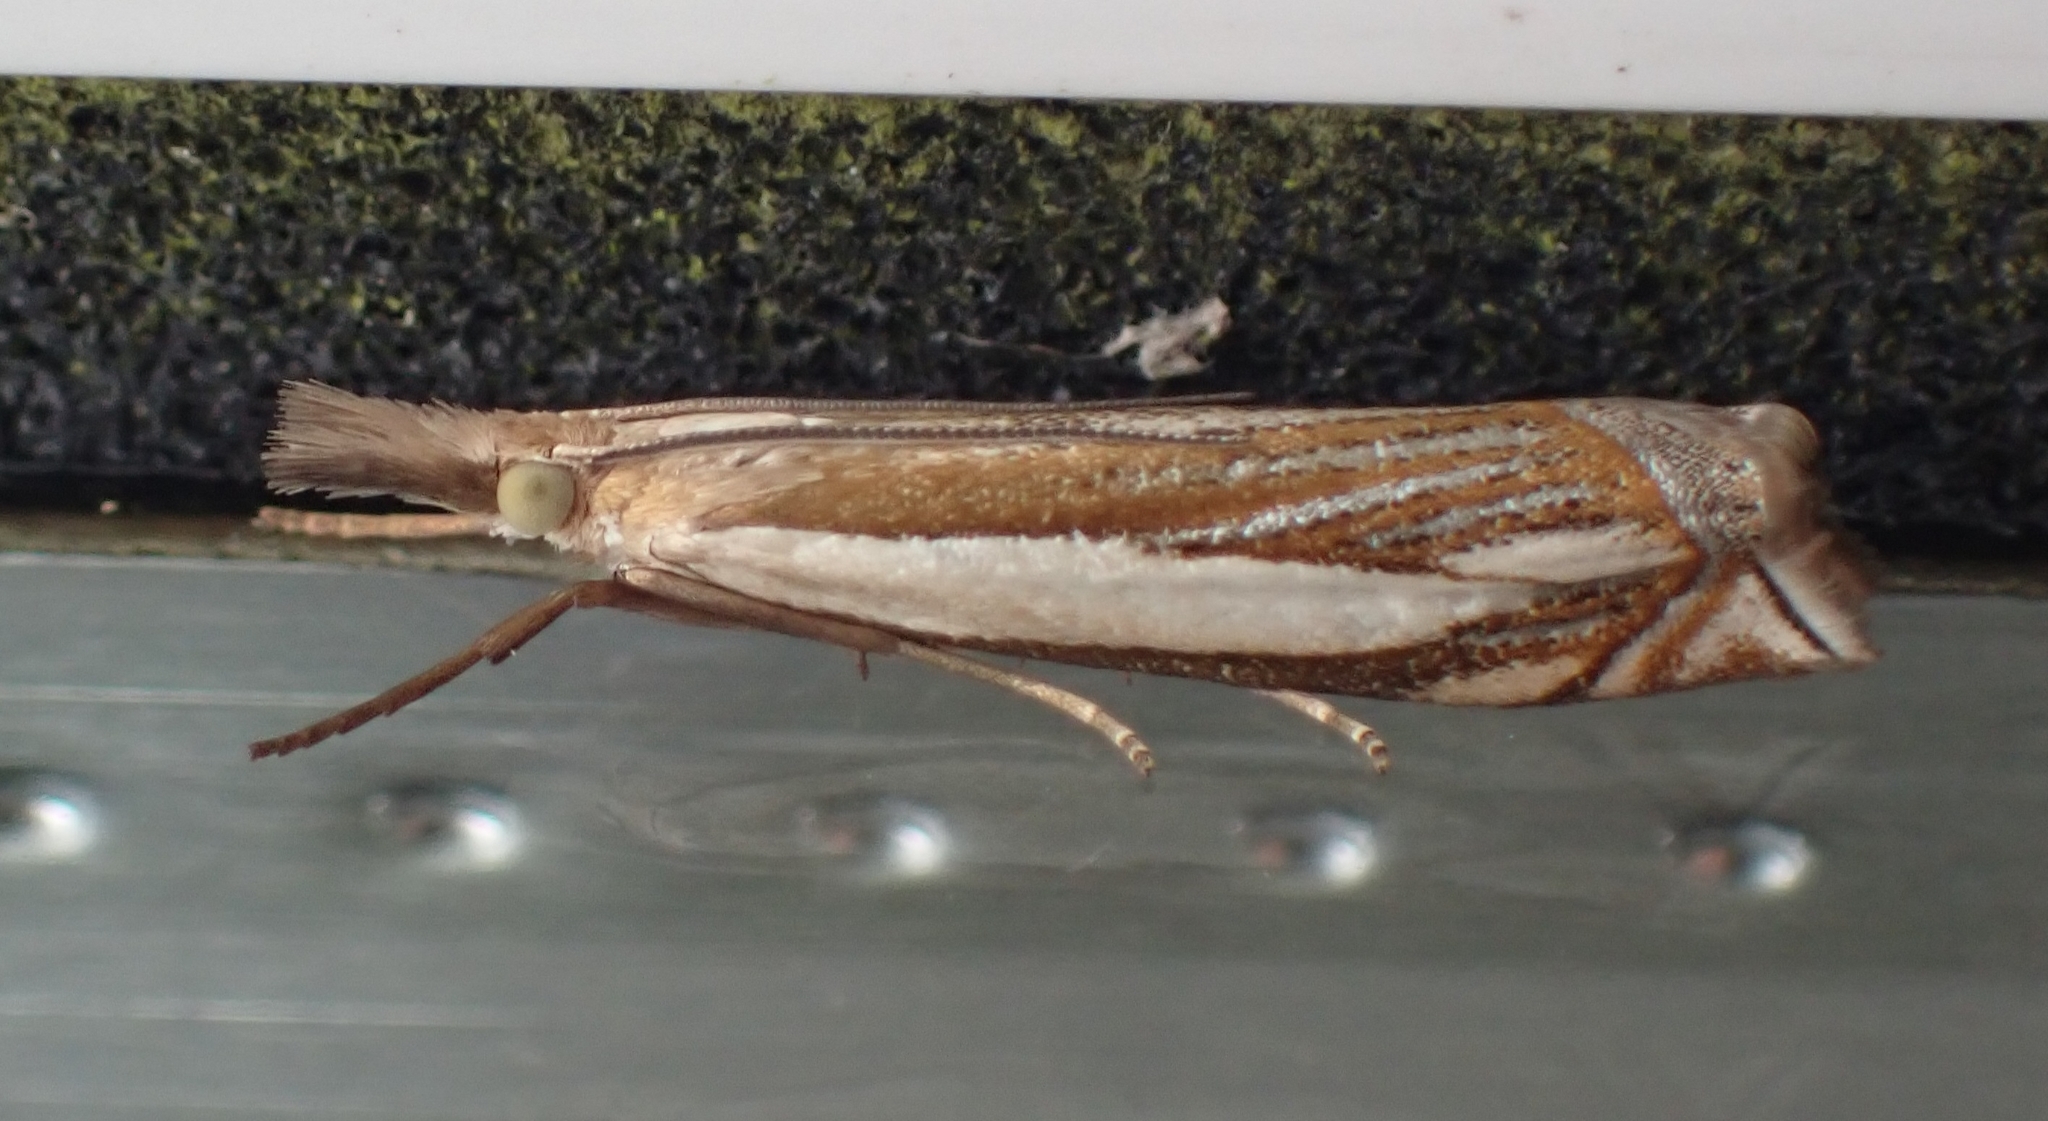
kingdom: Animalia
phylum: Arthropoda
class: Insecta
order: Lepidoptera
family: Crambidae
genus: Crambus
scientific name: Crambus pascuella
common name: Inlaid grass-veneer
